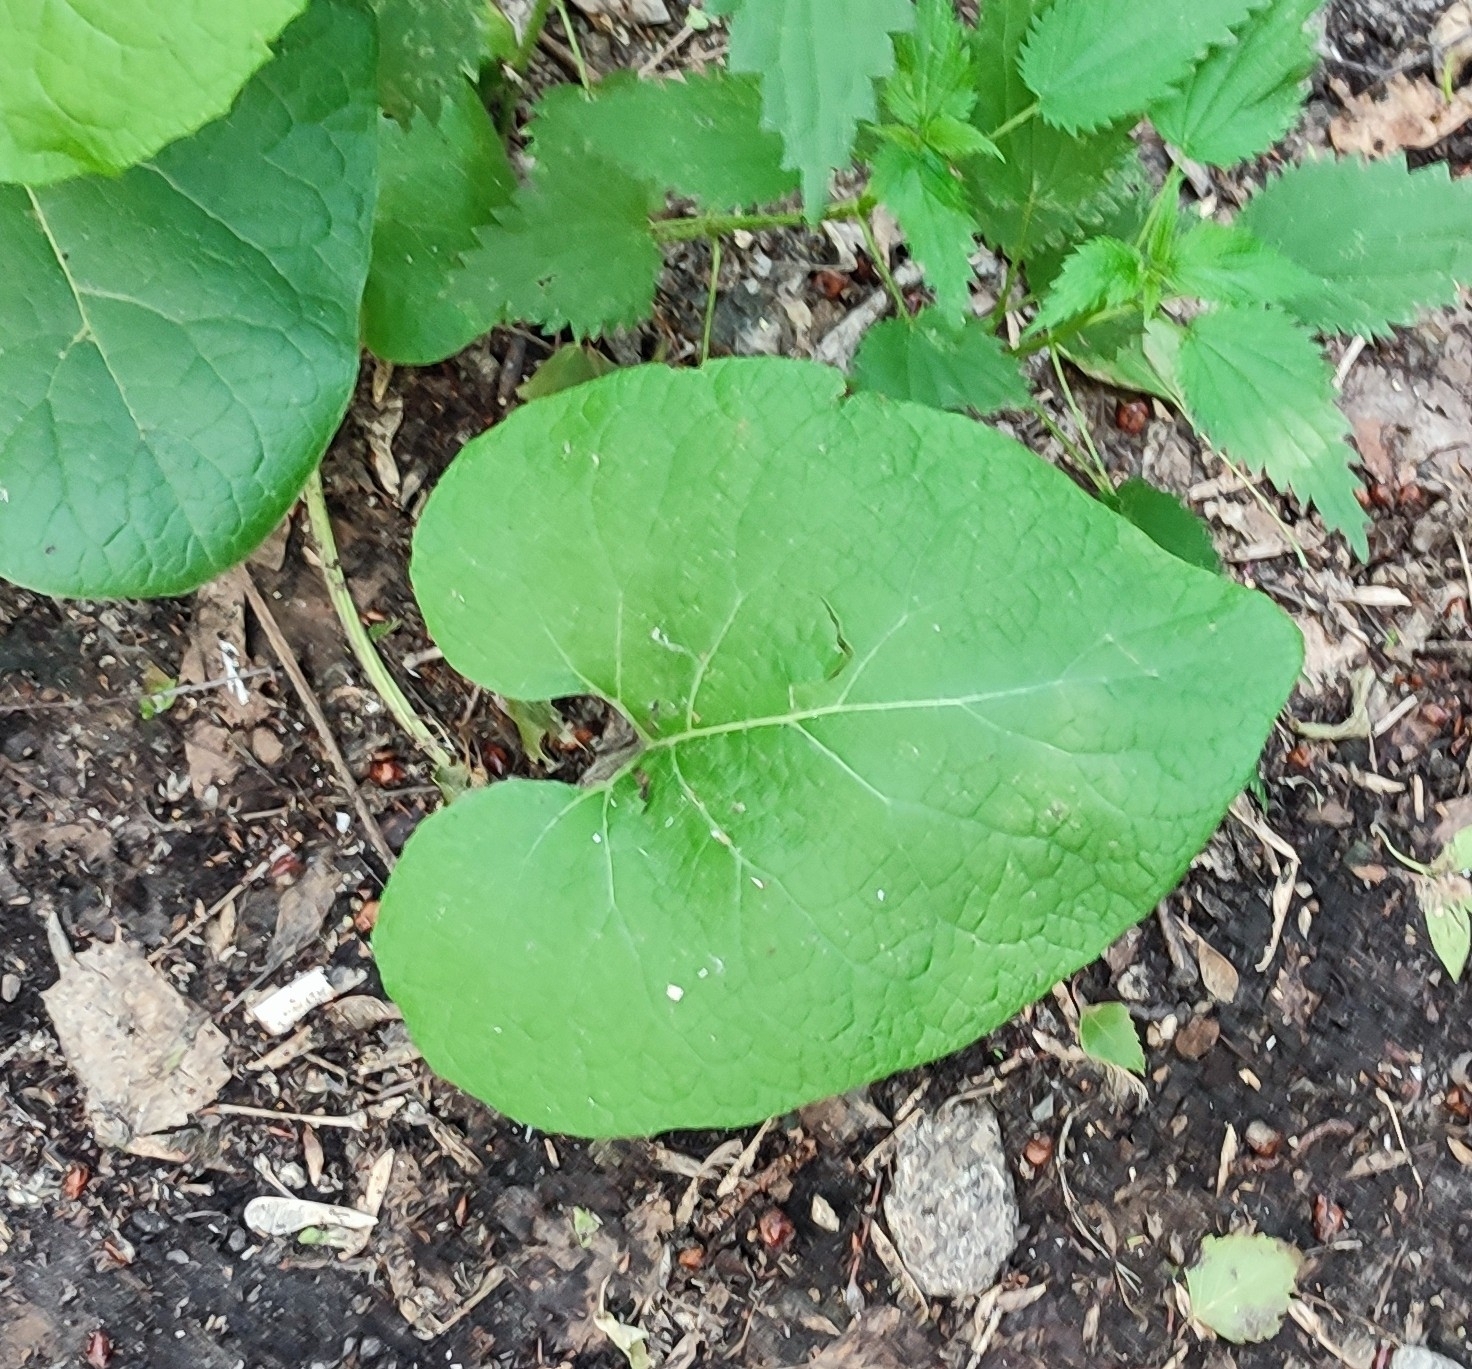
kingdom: Plantae
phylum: Tracheophyta
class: Magnoliopsida
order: Asterales
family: Asteraceae
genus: Arctium
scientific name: Arctium tomentosum
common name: Woolly burdock
